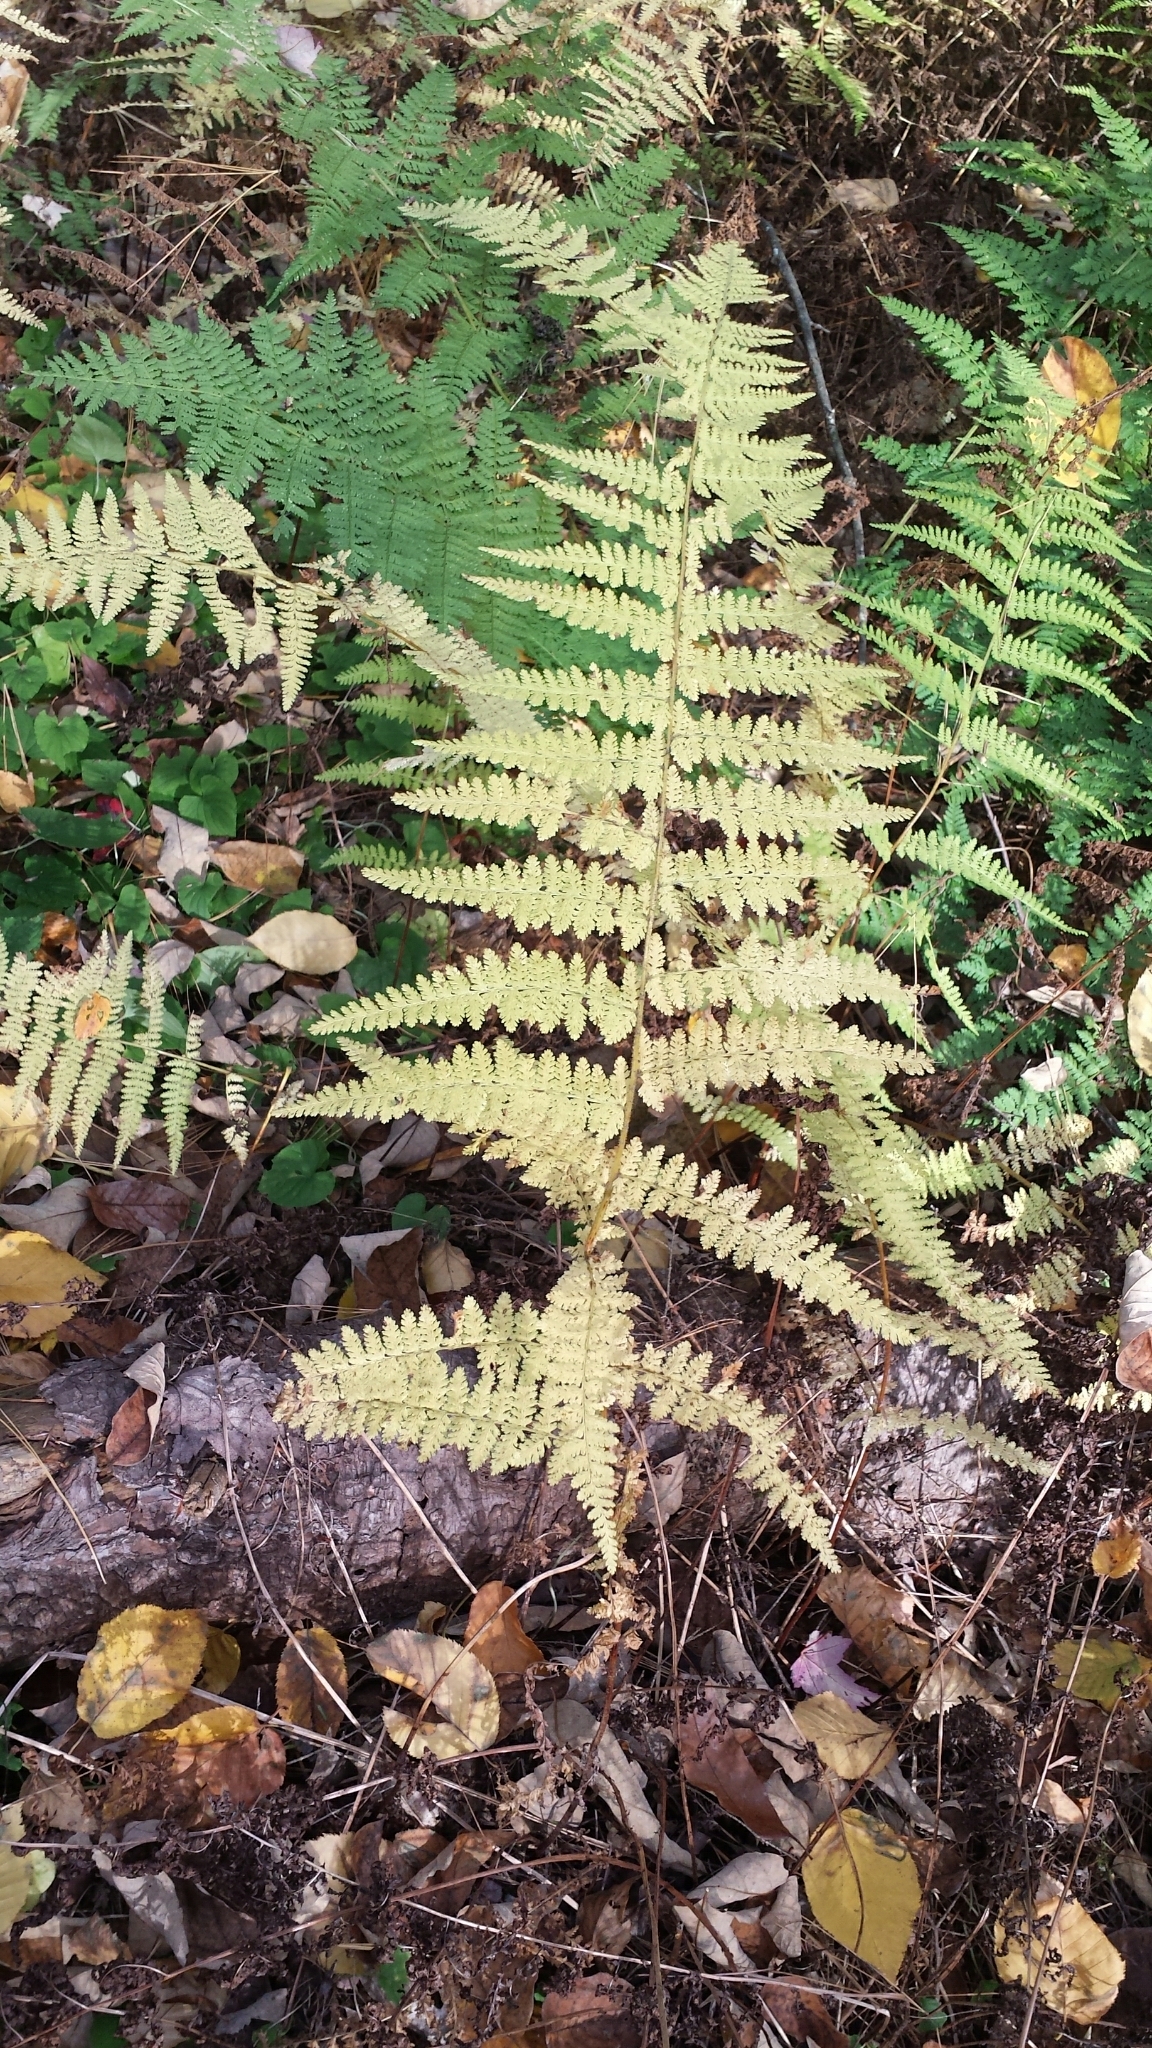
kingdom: Plantae
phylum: Tracheophyta
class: Polypodiopsida
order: Polypodiales
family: Dennstaedtiaceae
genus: Sitobolium
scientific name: Sitobolium punctilobum
